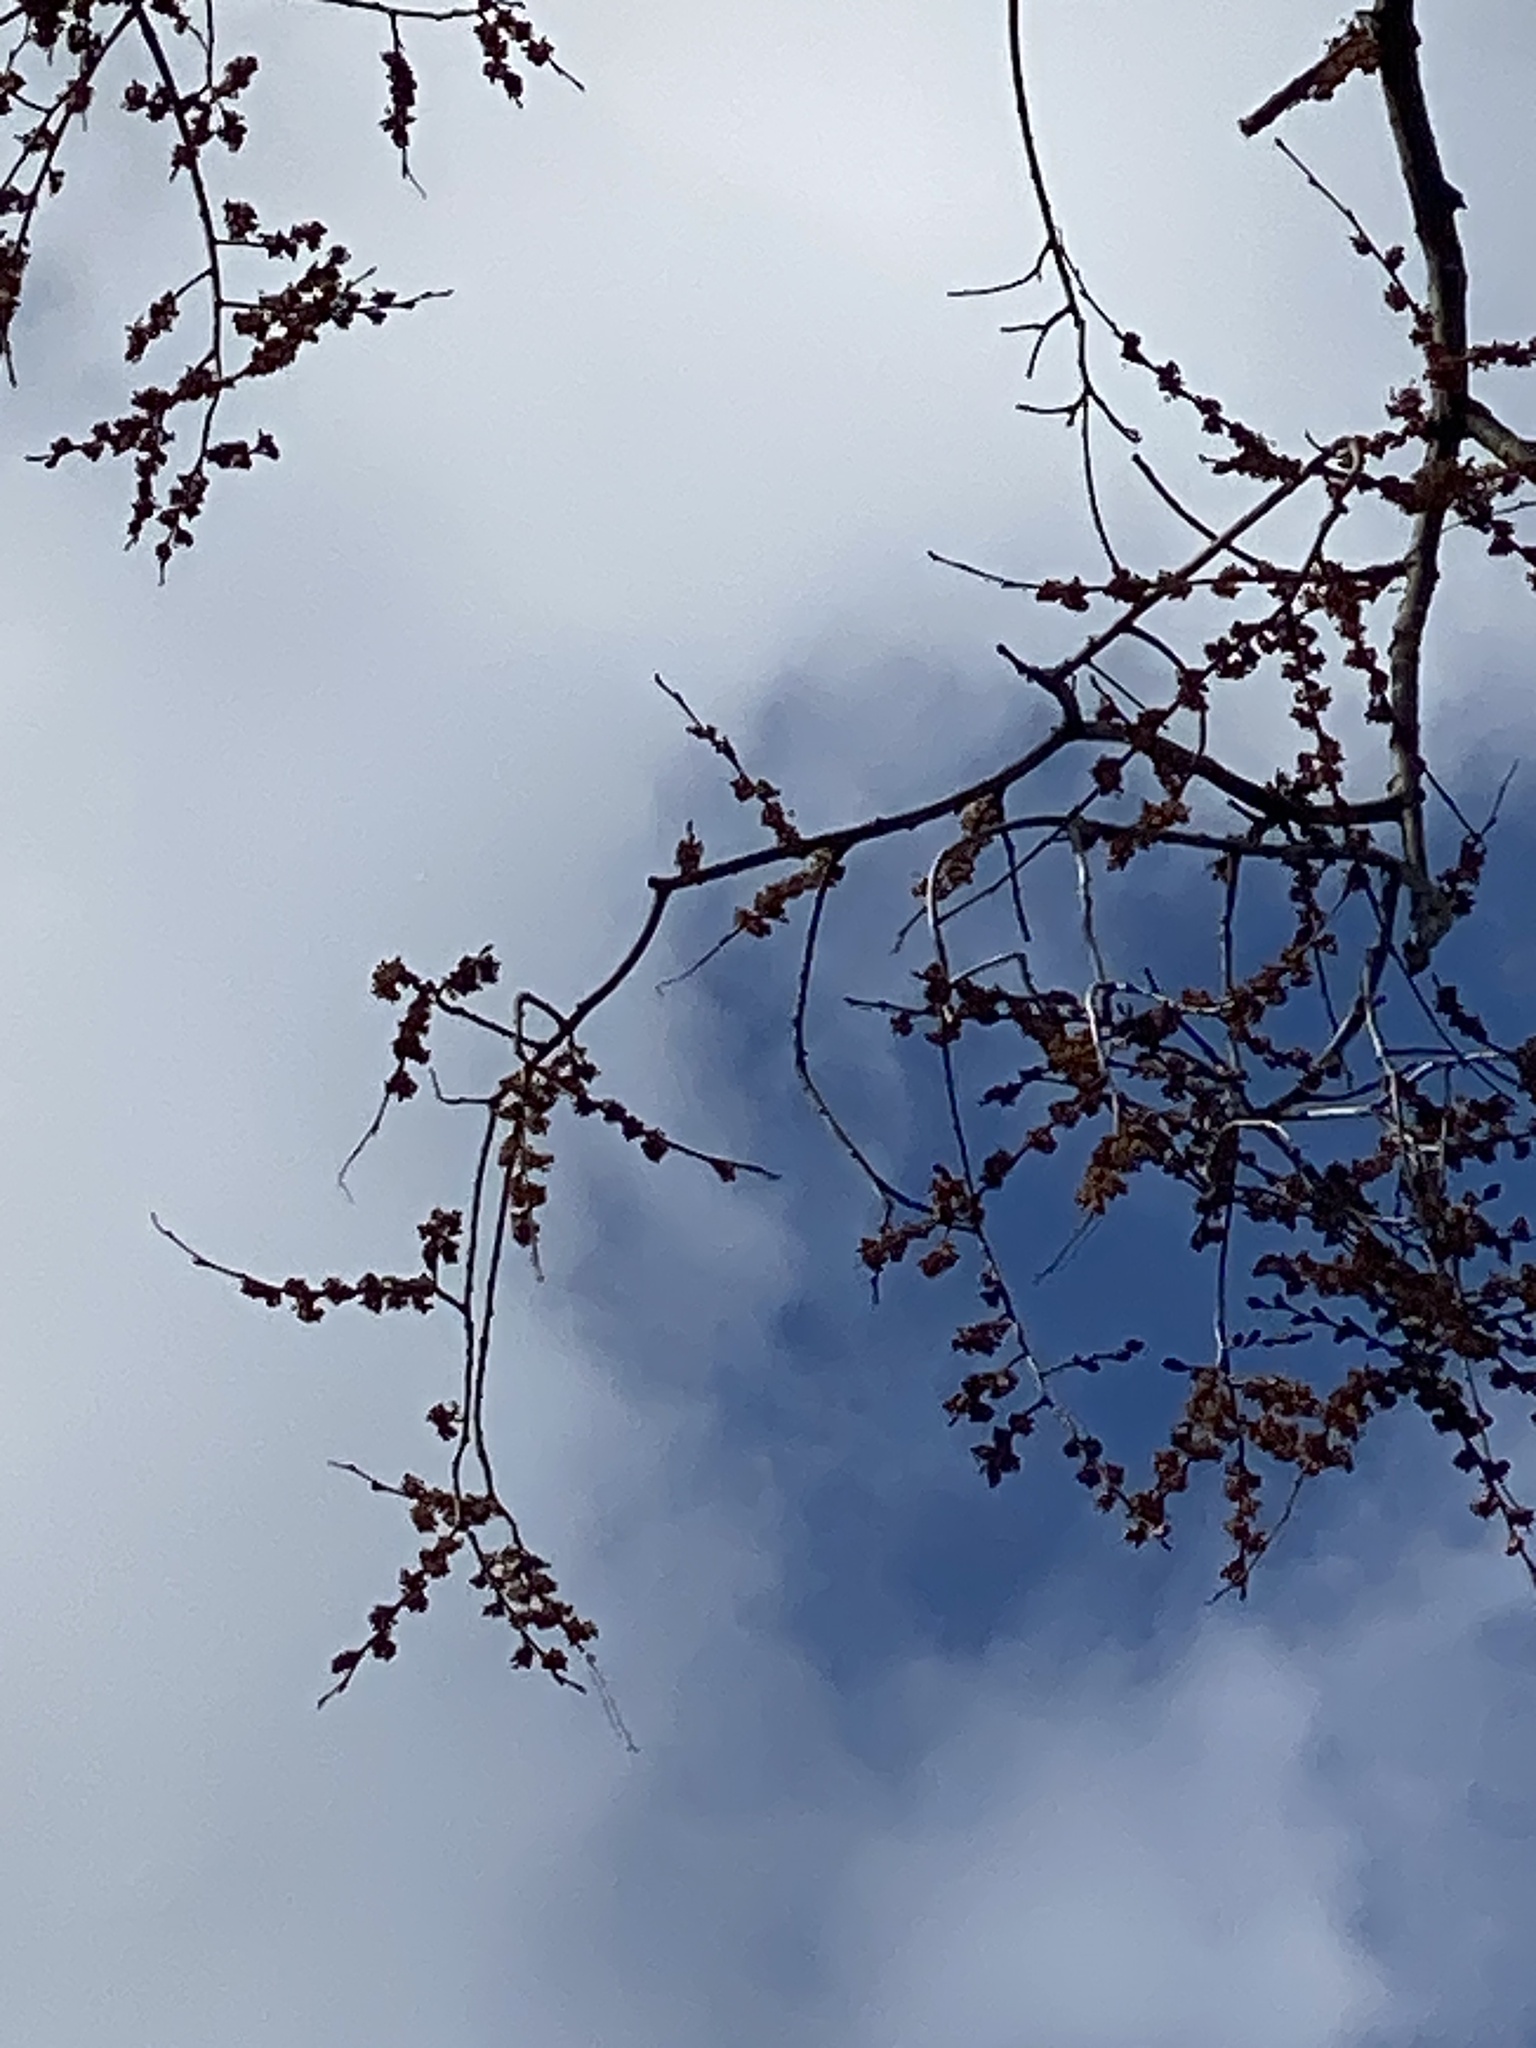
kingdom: Plantae
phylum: Tracheophyta
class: Magnoliopsida
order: Rosales
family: Ulmaceae
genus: Ulmus
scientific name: Ulmus americana
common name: American elm
